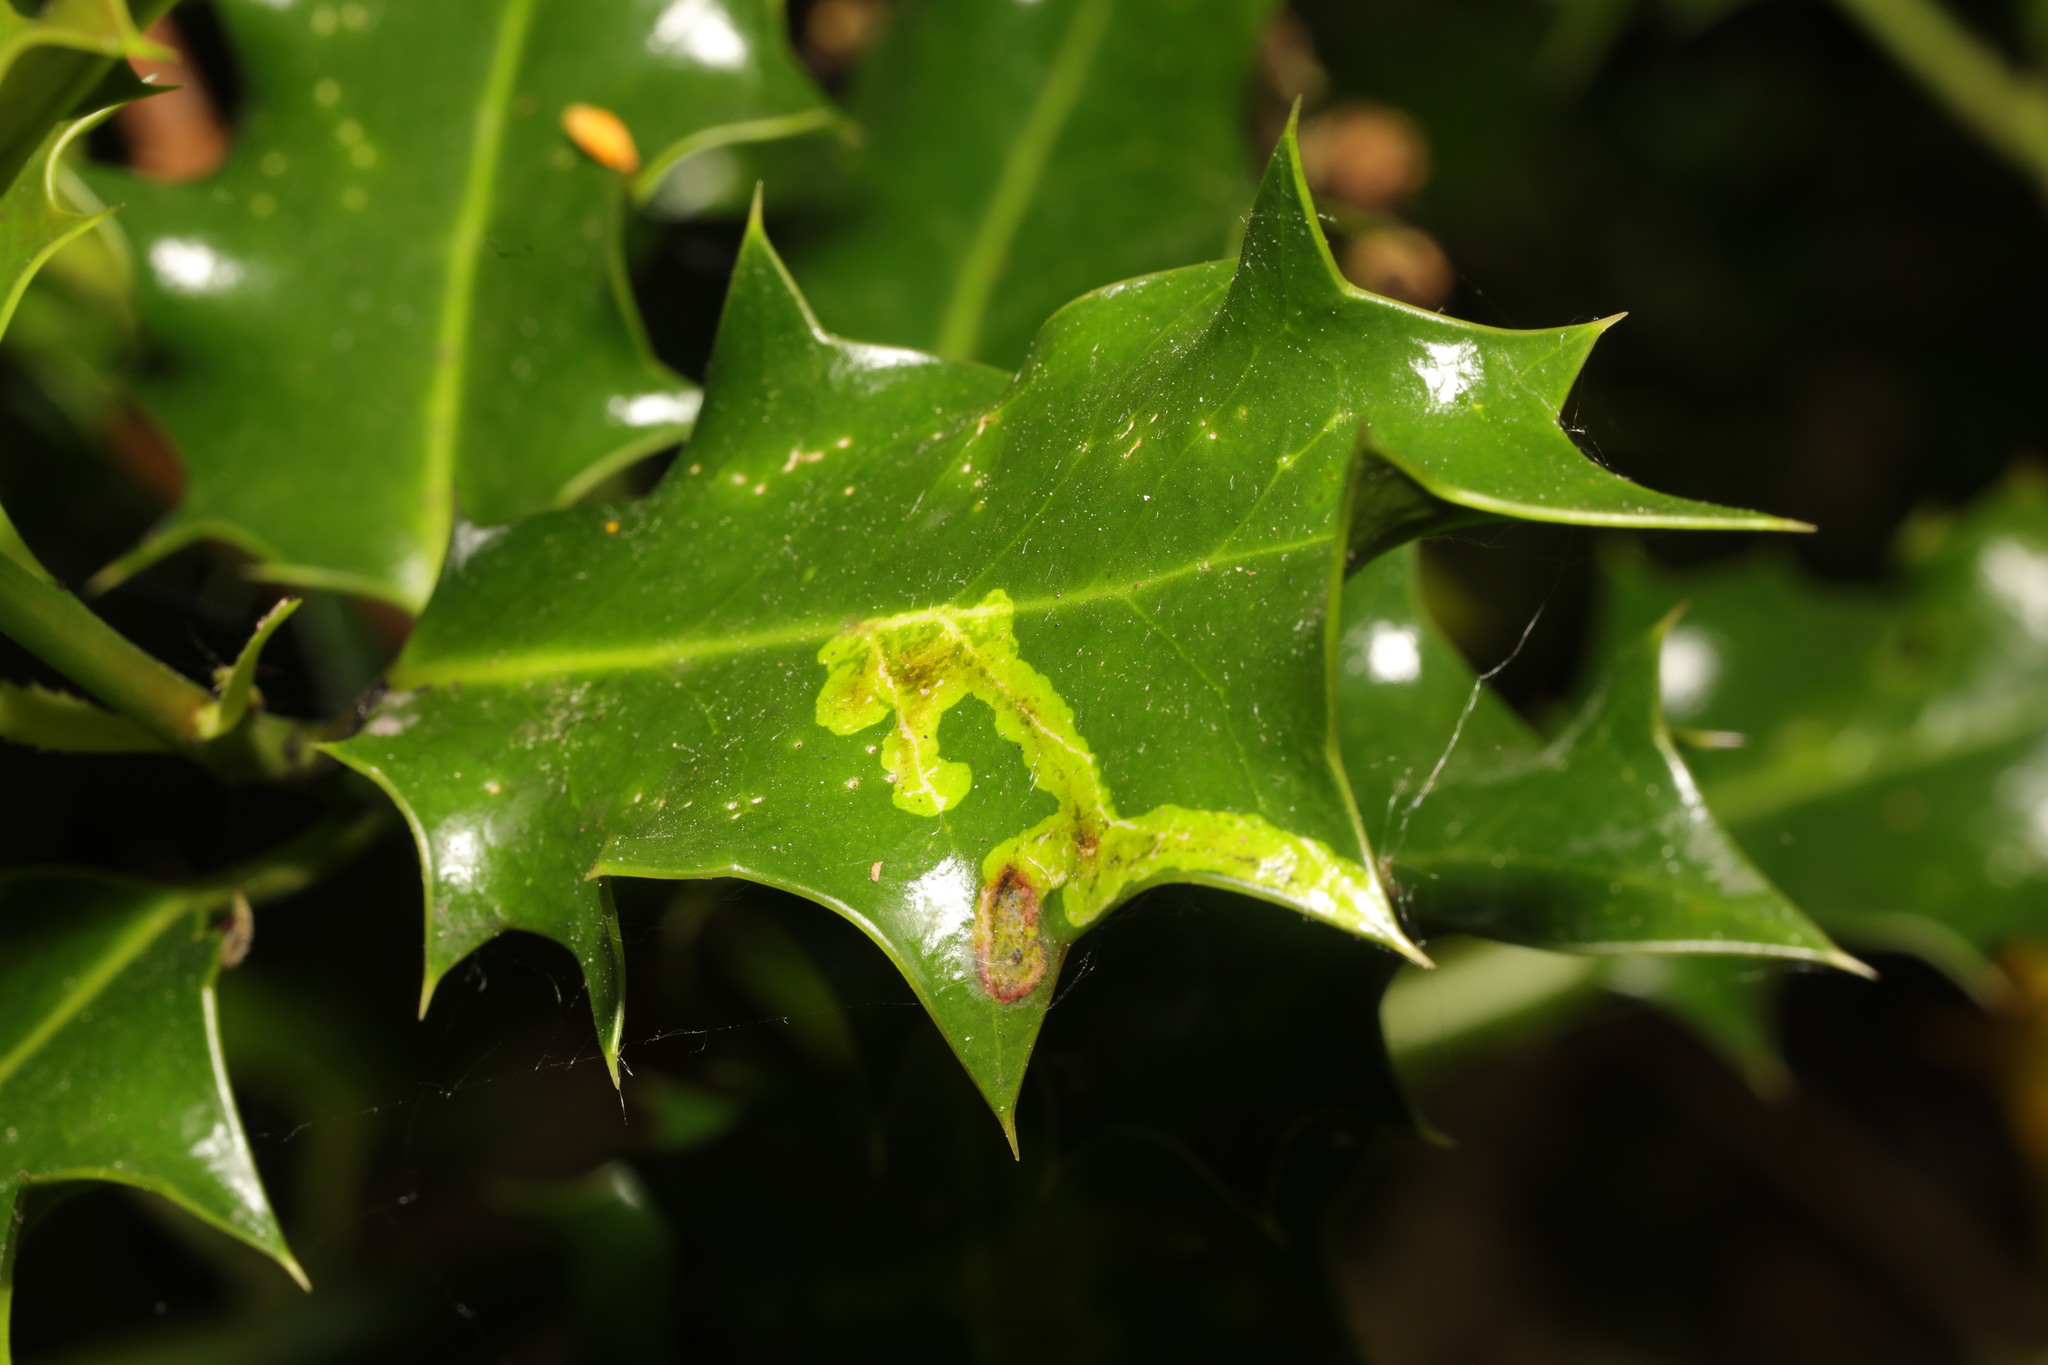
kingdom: Animalia
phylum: Arthropoda
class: Insecta
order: Diptera
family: Agromyzidae
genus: Phytomyza
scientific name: Phytomyza ilicis
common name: Holly leafminer
